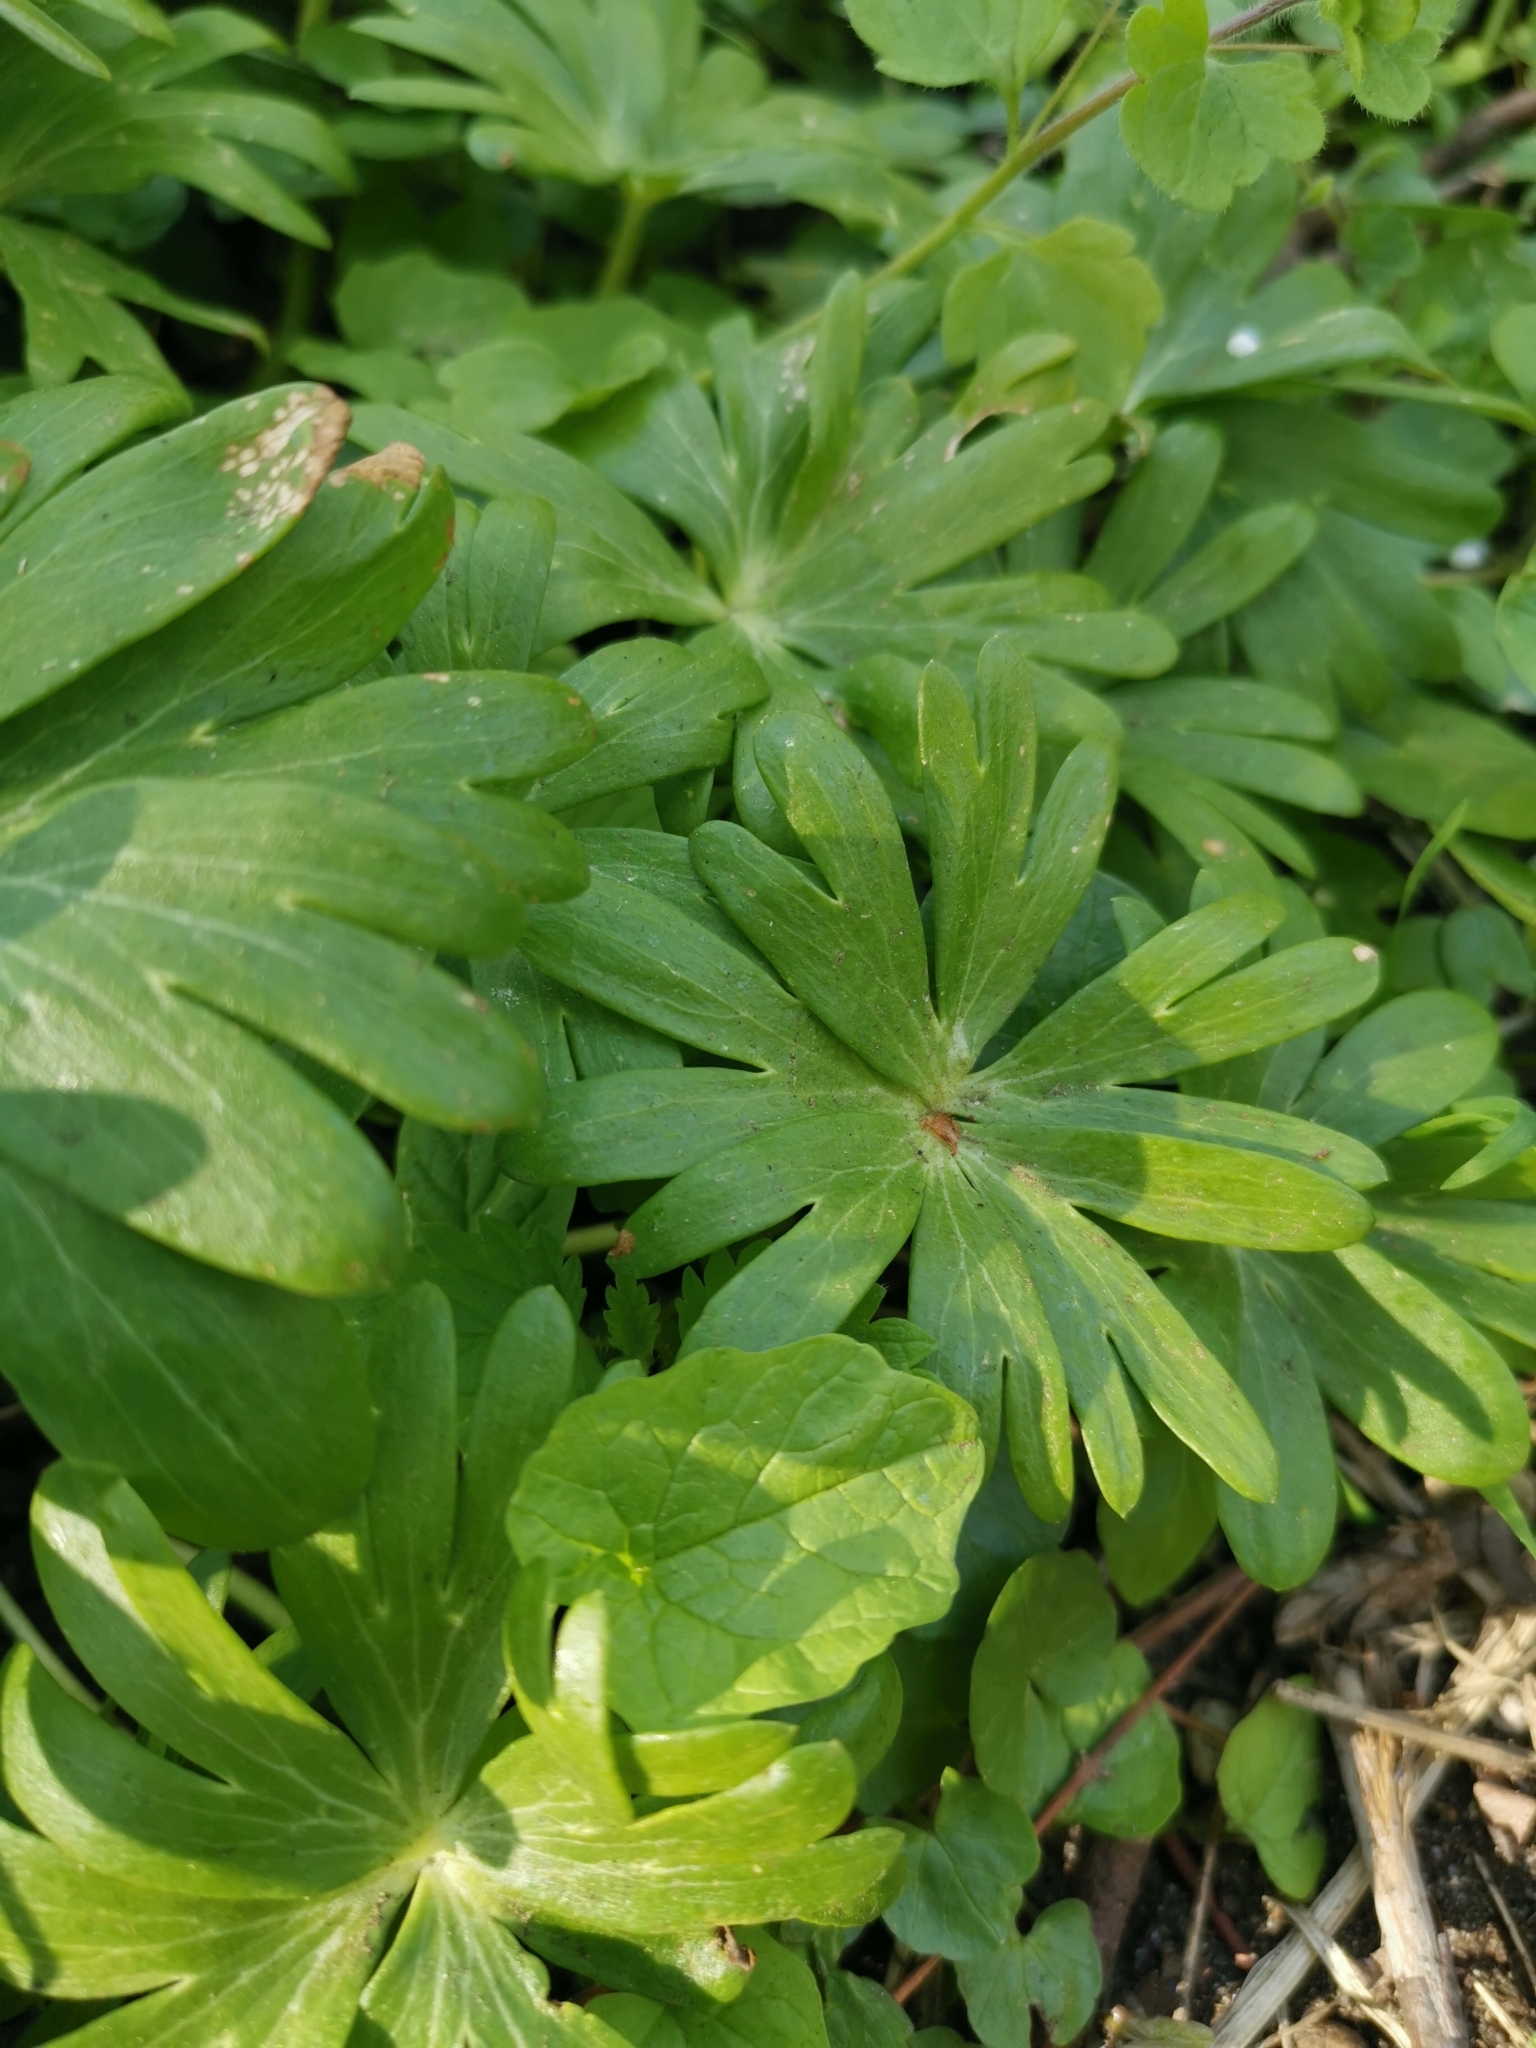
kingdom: Plantae
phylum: Tracheophyta
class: Magnoliopsida
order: Ranunculales
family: Ranunculaceae
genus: Eranthis
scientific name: Eranthis hyemalis
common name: Winter aconite
